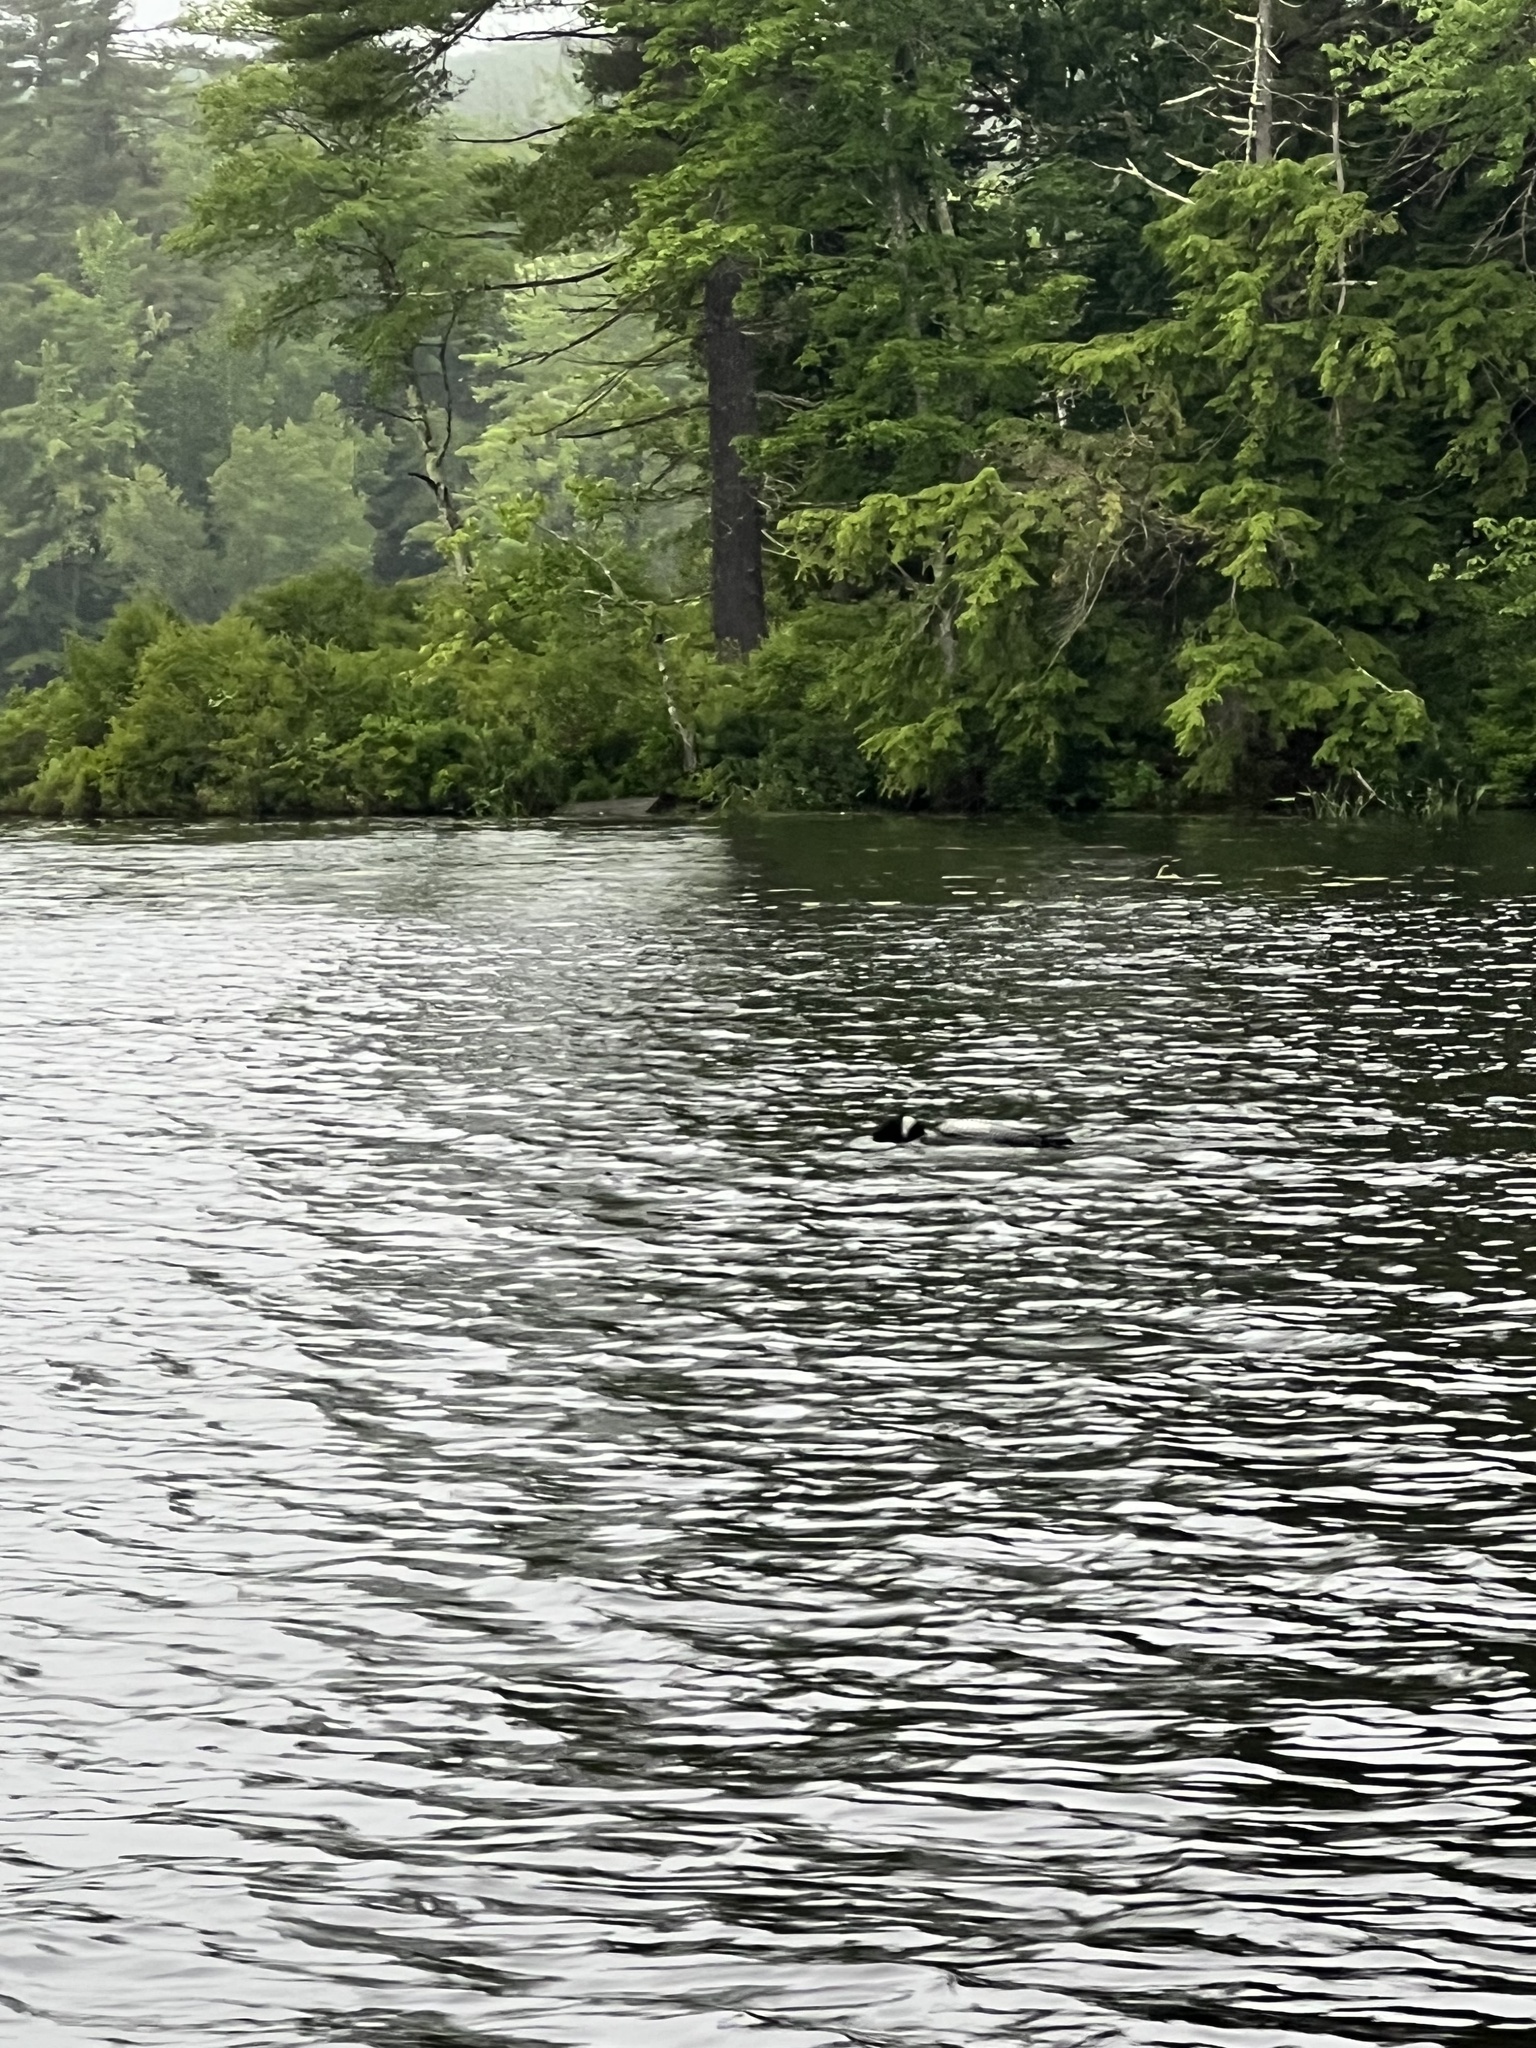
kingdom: Animalia
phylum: Chordata
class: Aves
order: Gaviiformes
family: Gaviidae
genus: Gavia
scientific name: Gavia immer
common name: Common loon
